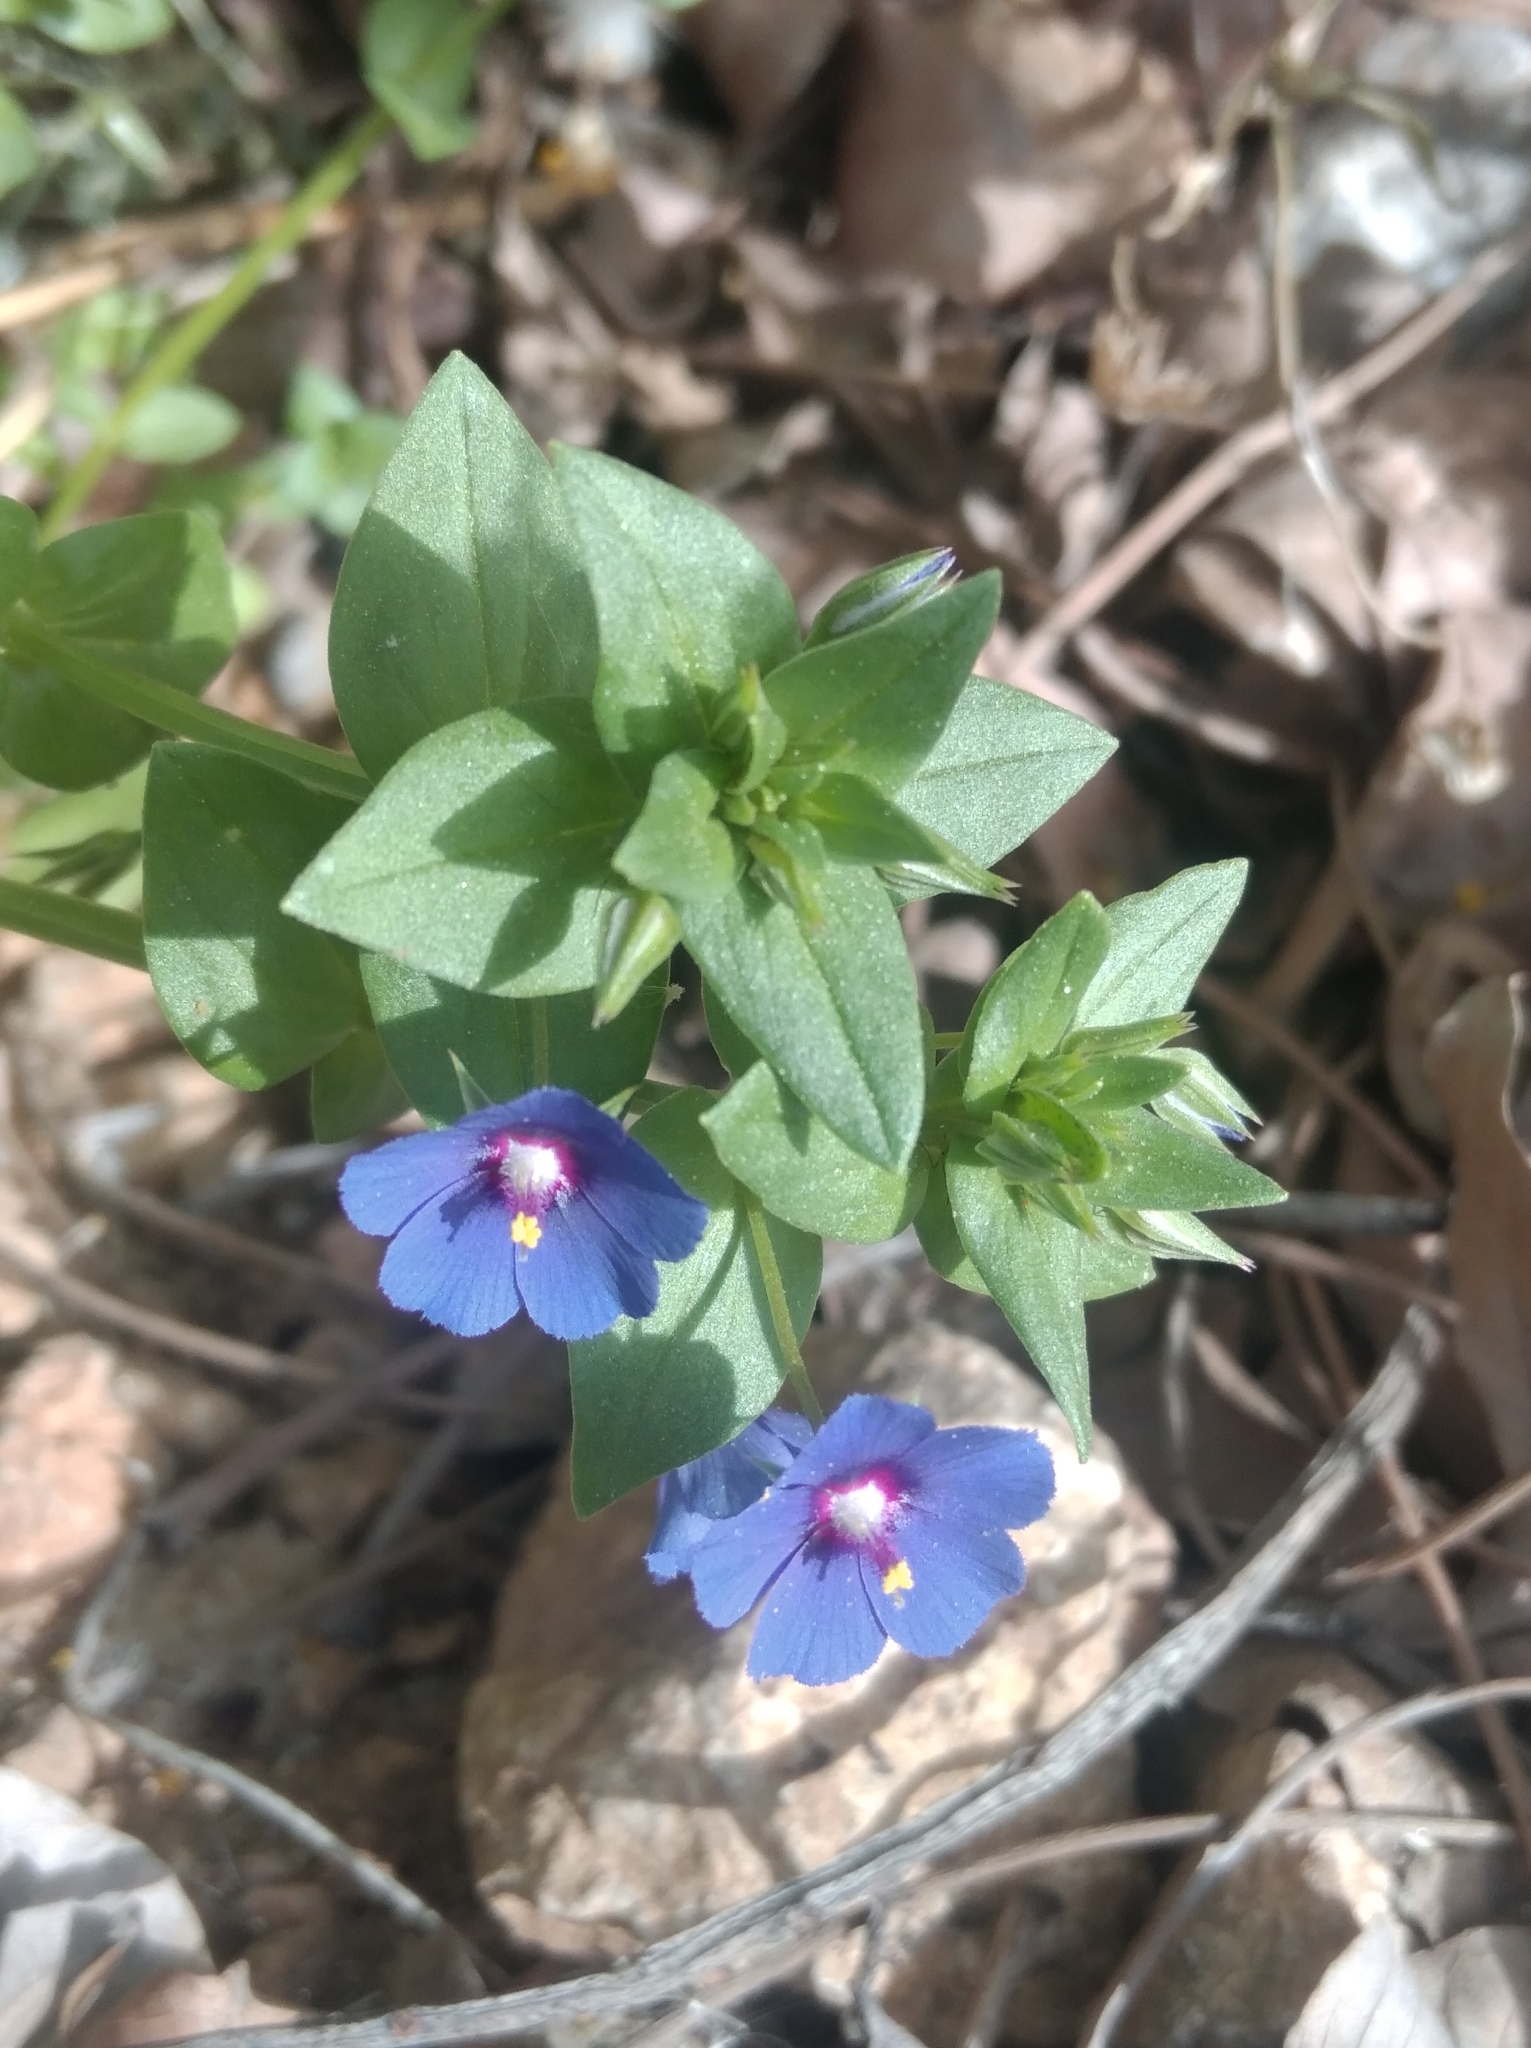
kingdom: Plantae
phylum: Tracheophyta
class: Magnoliopsida
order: Ericales
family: Primulaceae
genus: Lysimachia
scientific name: Lysimachia foemina
